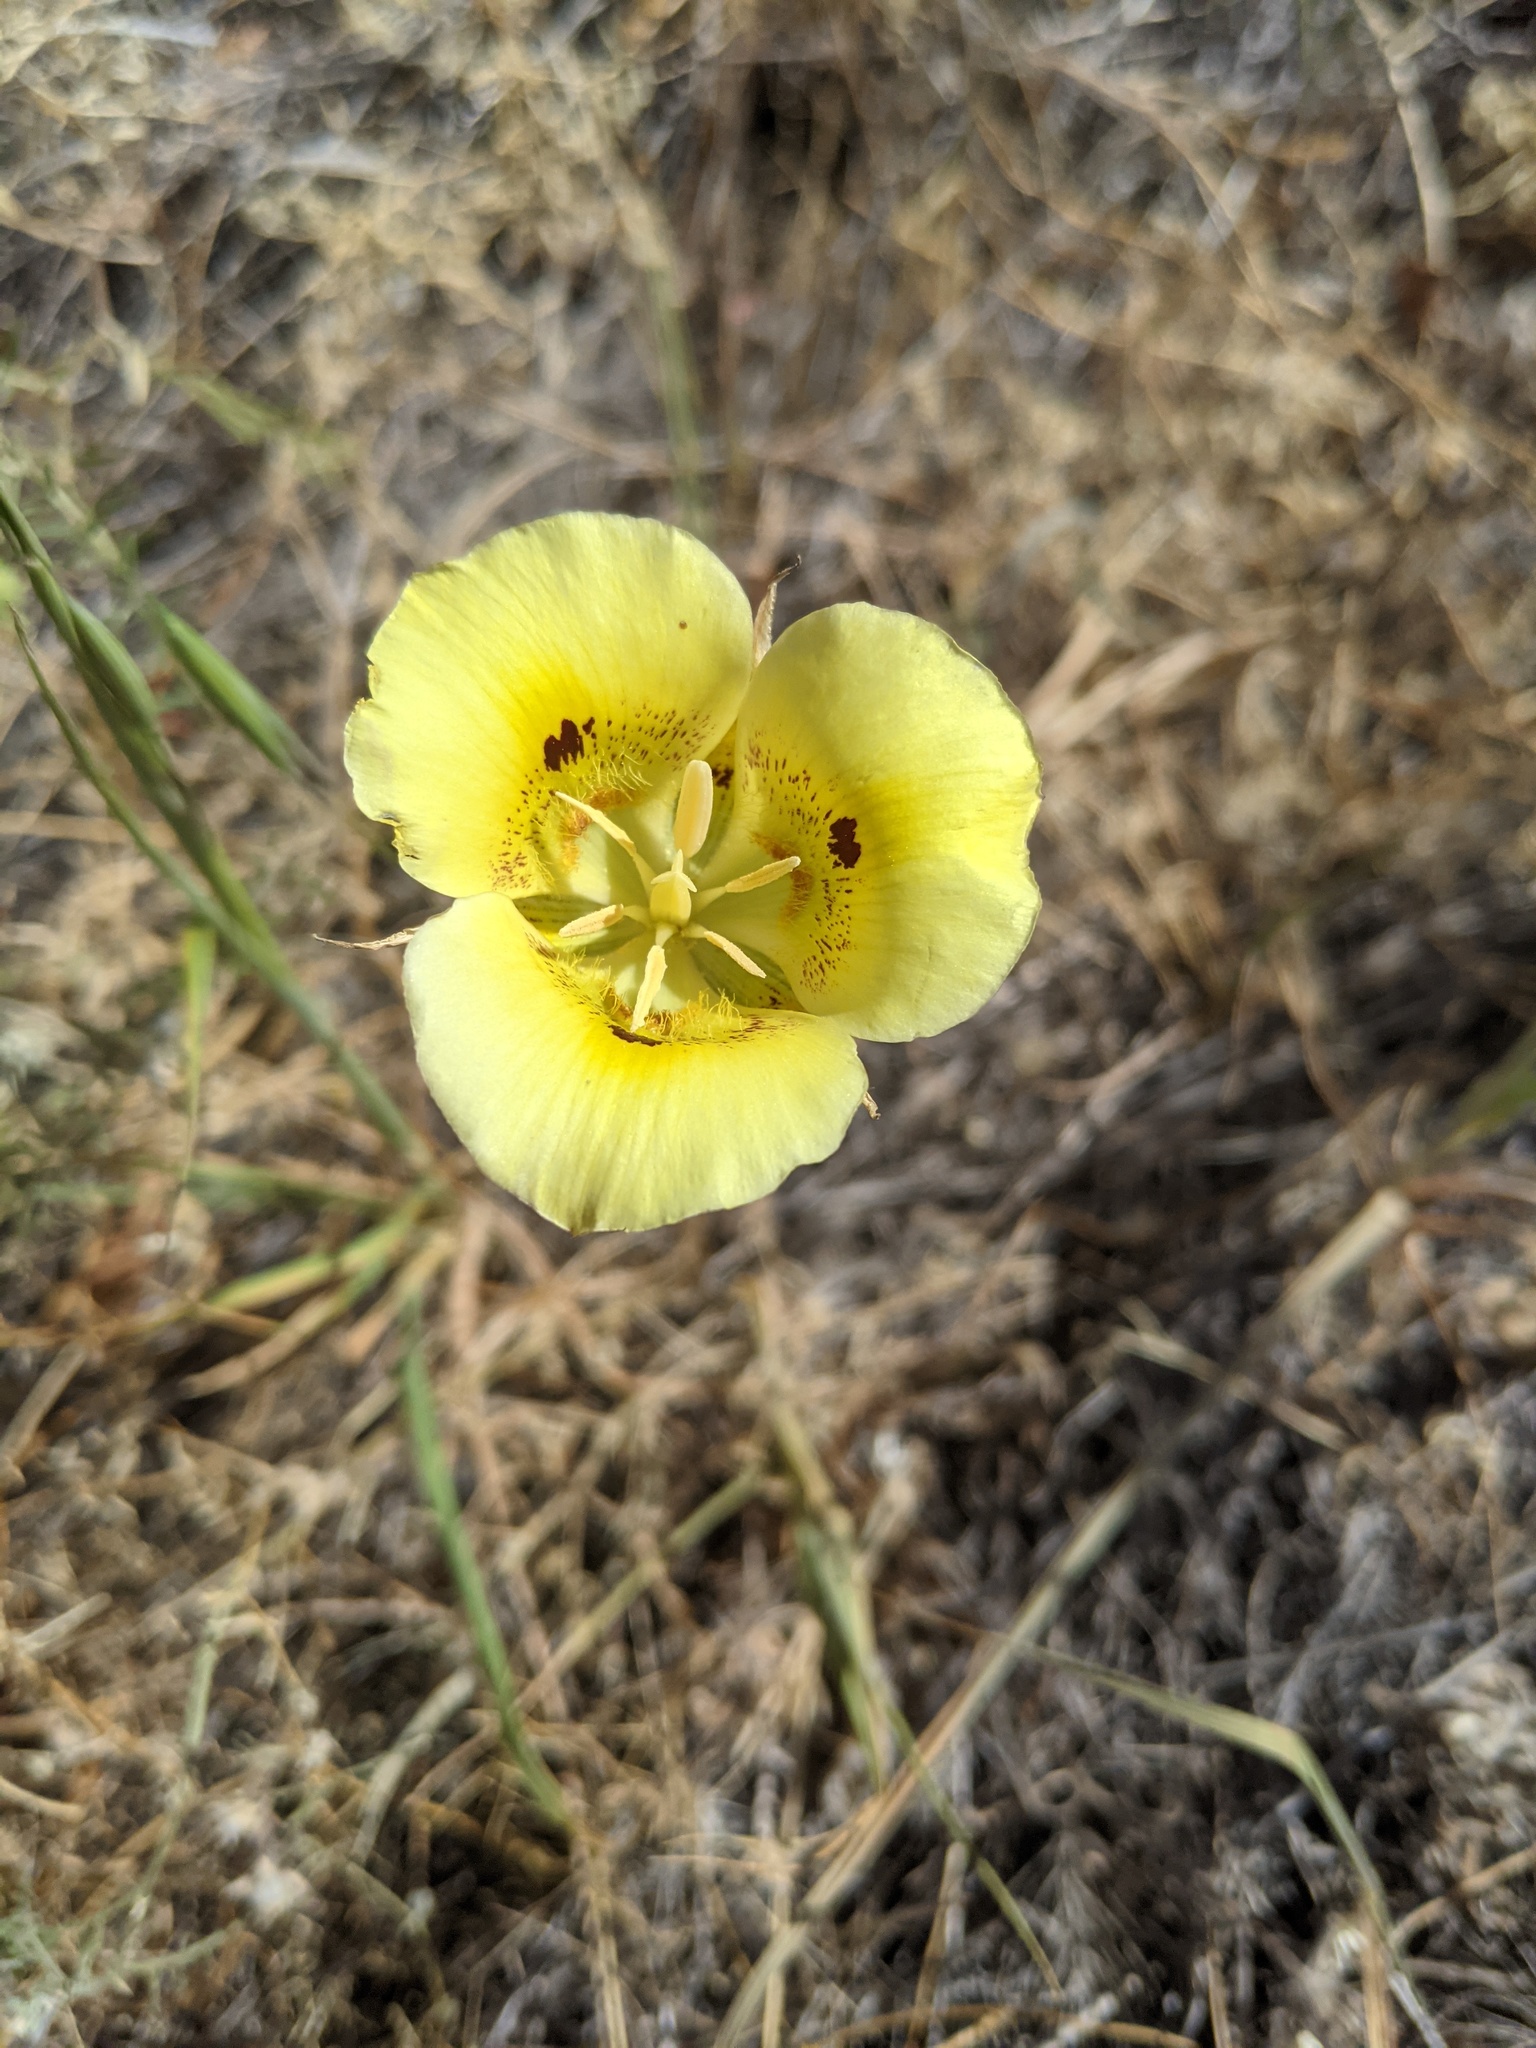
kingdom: Plantae
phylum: Tracheophyta
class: Liliopsida
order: Liliales
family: Liliaceae
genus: Calochortus
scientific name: Calochortus luteus
